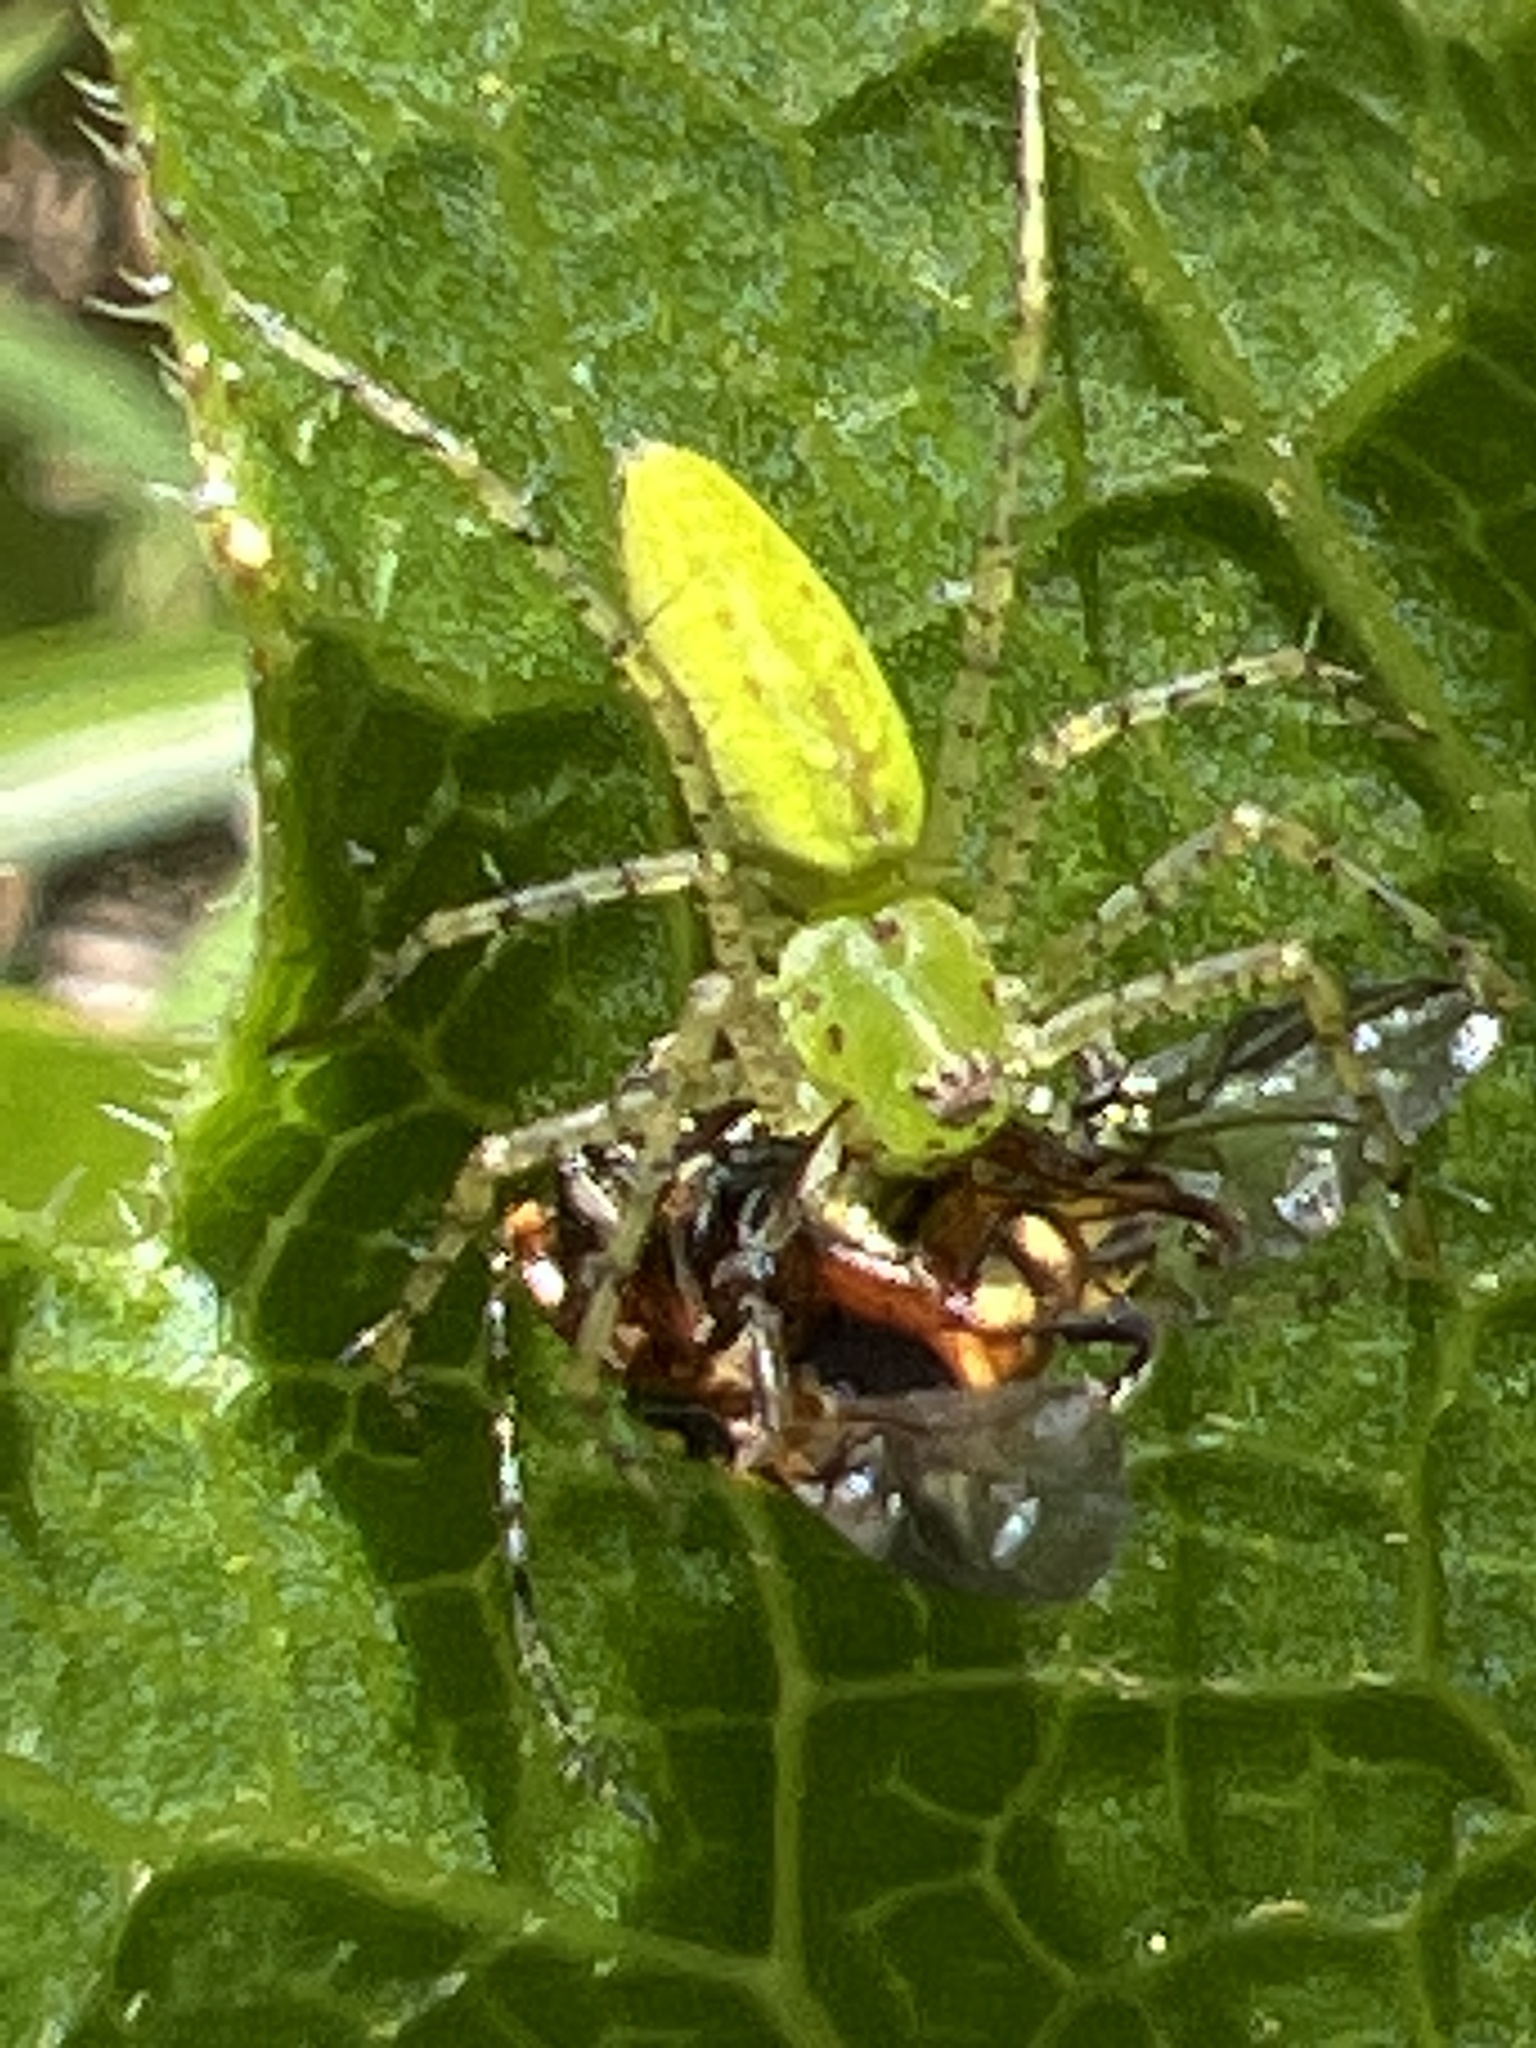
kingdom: Animalia
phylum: Arthropoda
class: Arachnida
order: Araneae
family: Oxyopidae
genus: Peucetia
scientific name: Peucetia viridans
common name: Lynx spiders
